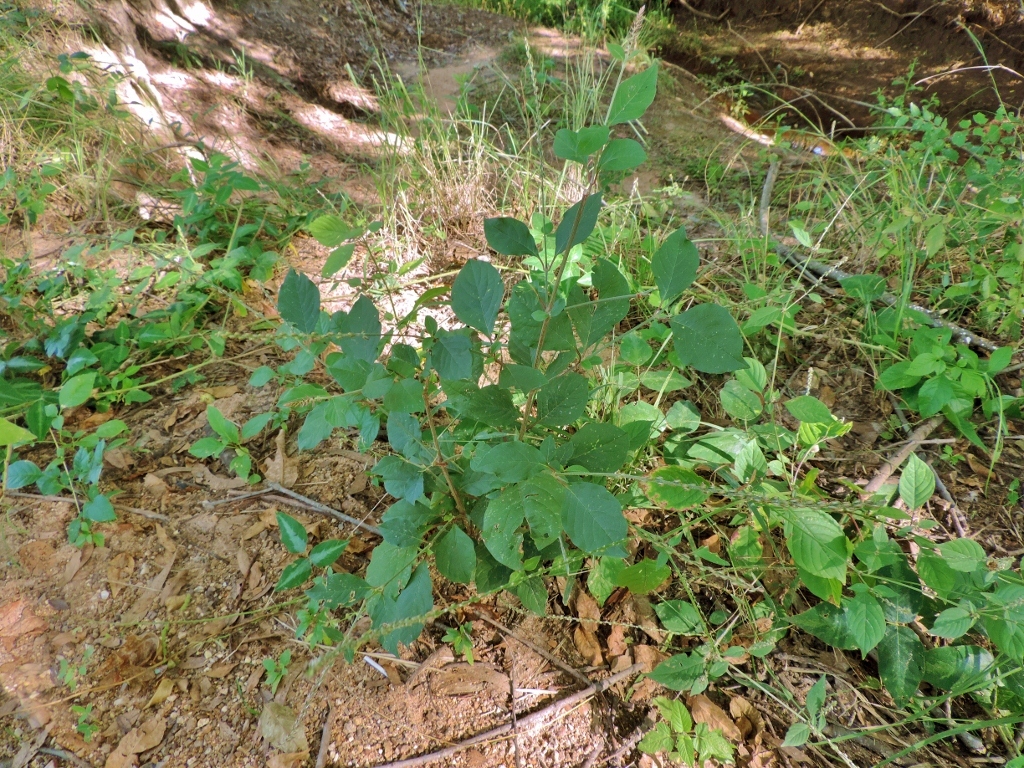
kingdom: Plantae
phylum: Tracheophyta
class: Magnoliopsida
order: Caryophyllales
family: Amaranthaceae
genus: Achyranthes
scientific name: Achyranthes sicula
